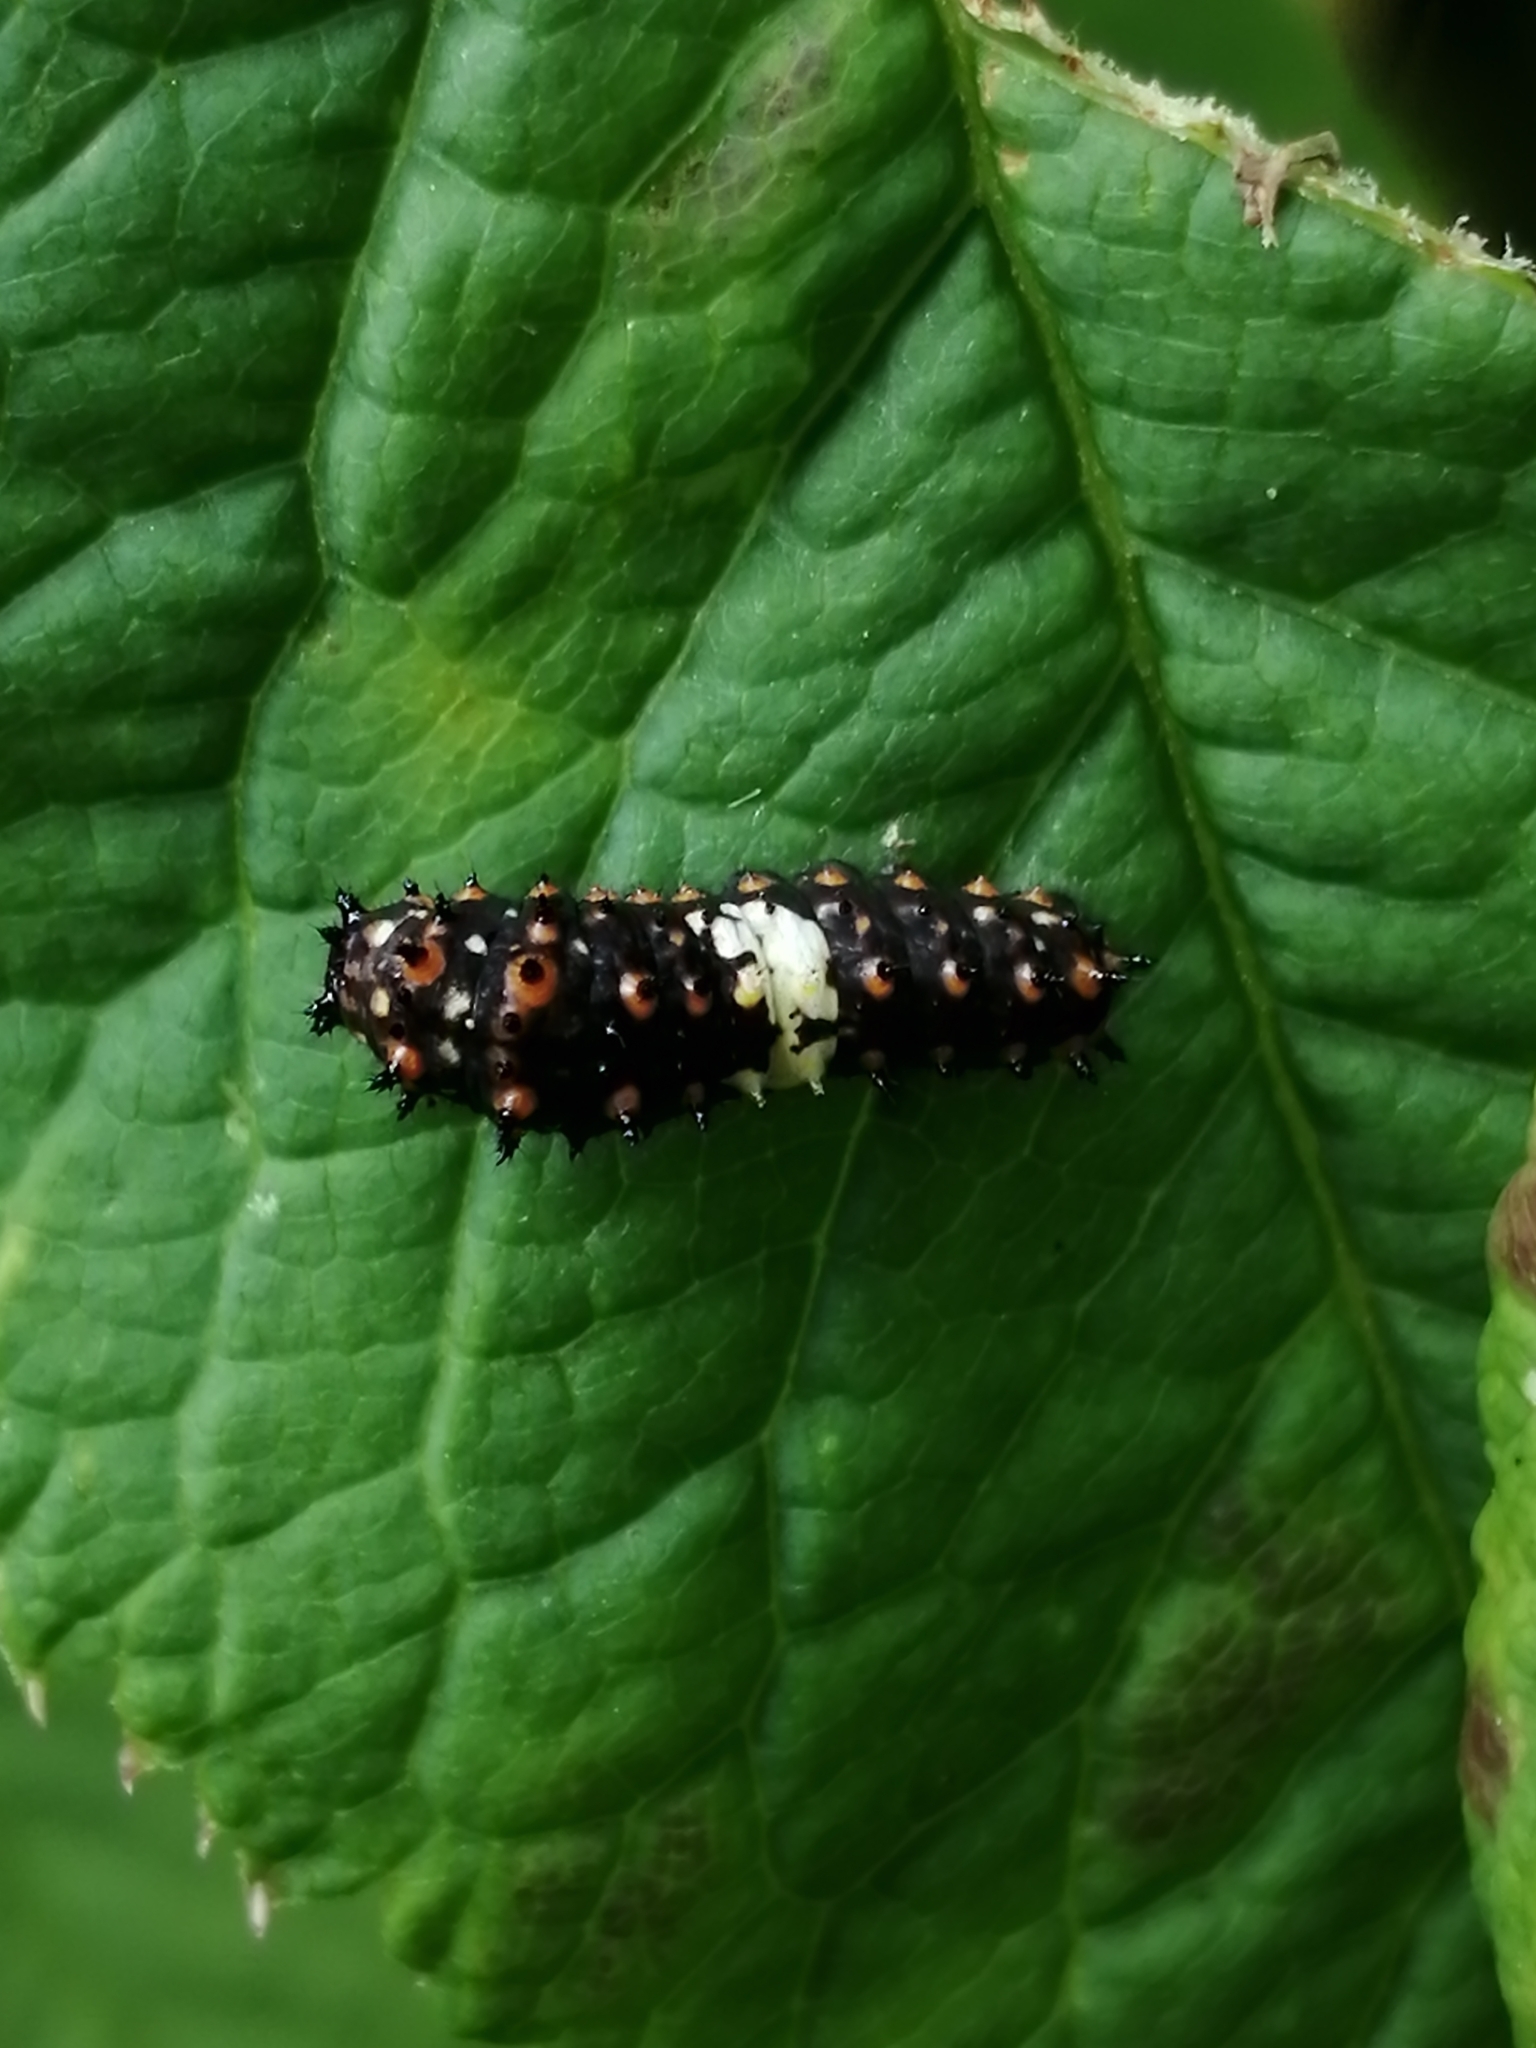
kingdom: Animalia
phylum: Arthropoda
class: Insecta
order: Lepidoptera
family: Papilionidae
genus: Papilio
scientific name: Papilio polyxenes
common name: Black swallowtail
